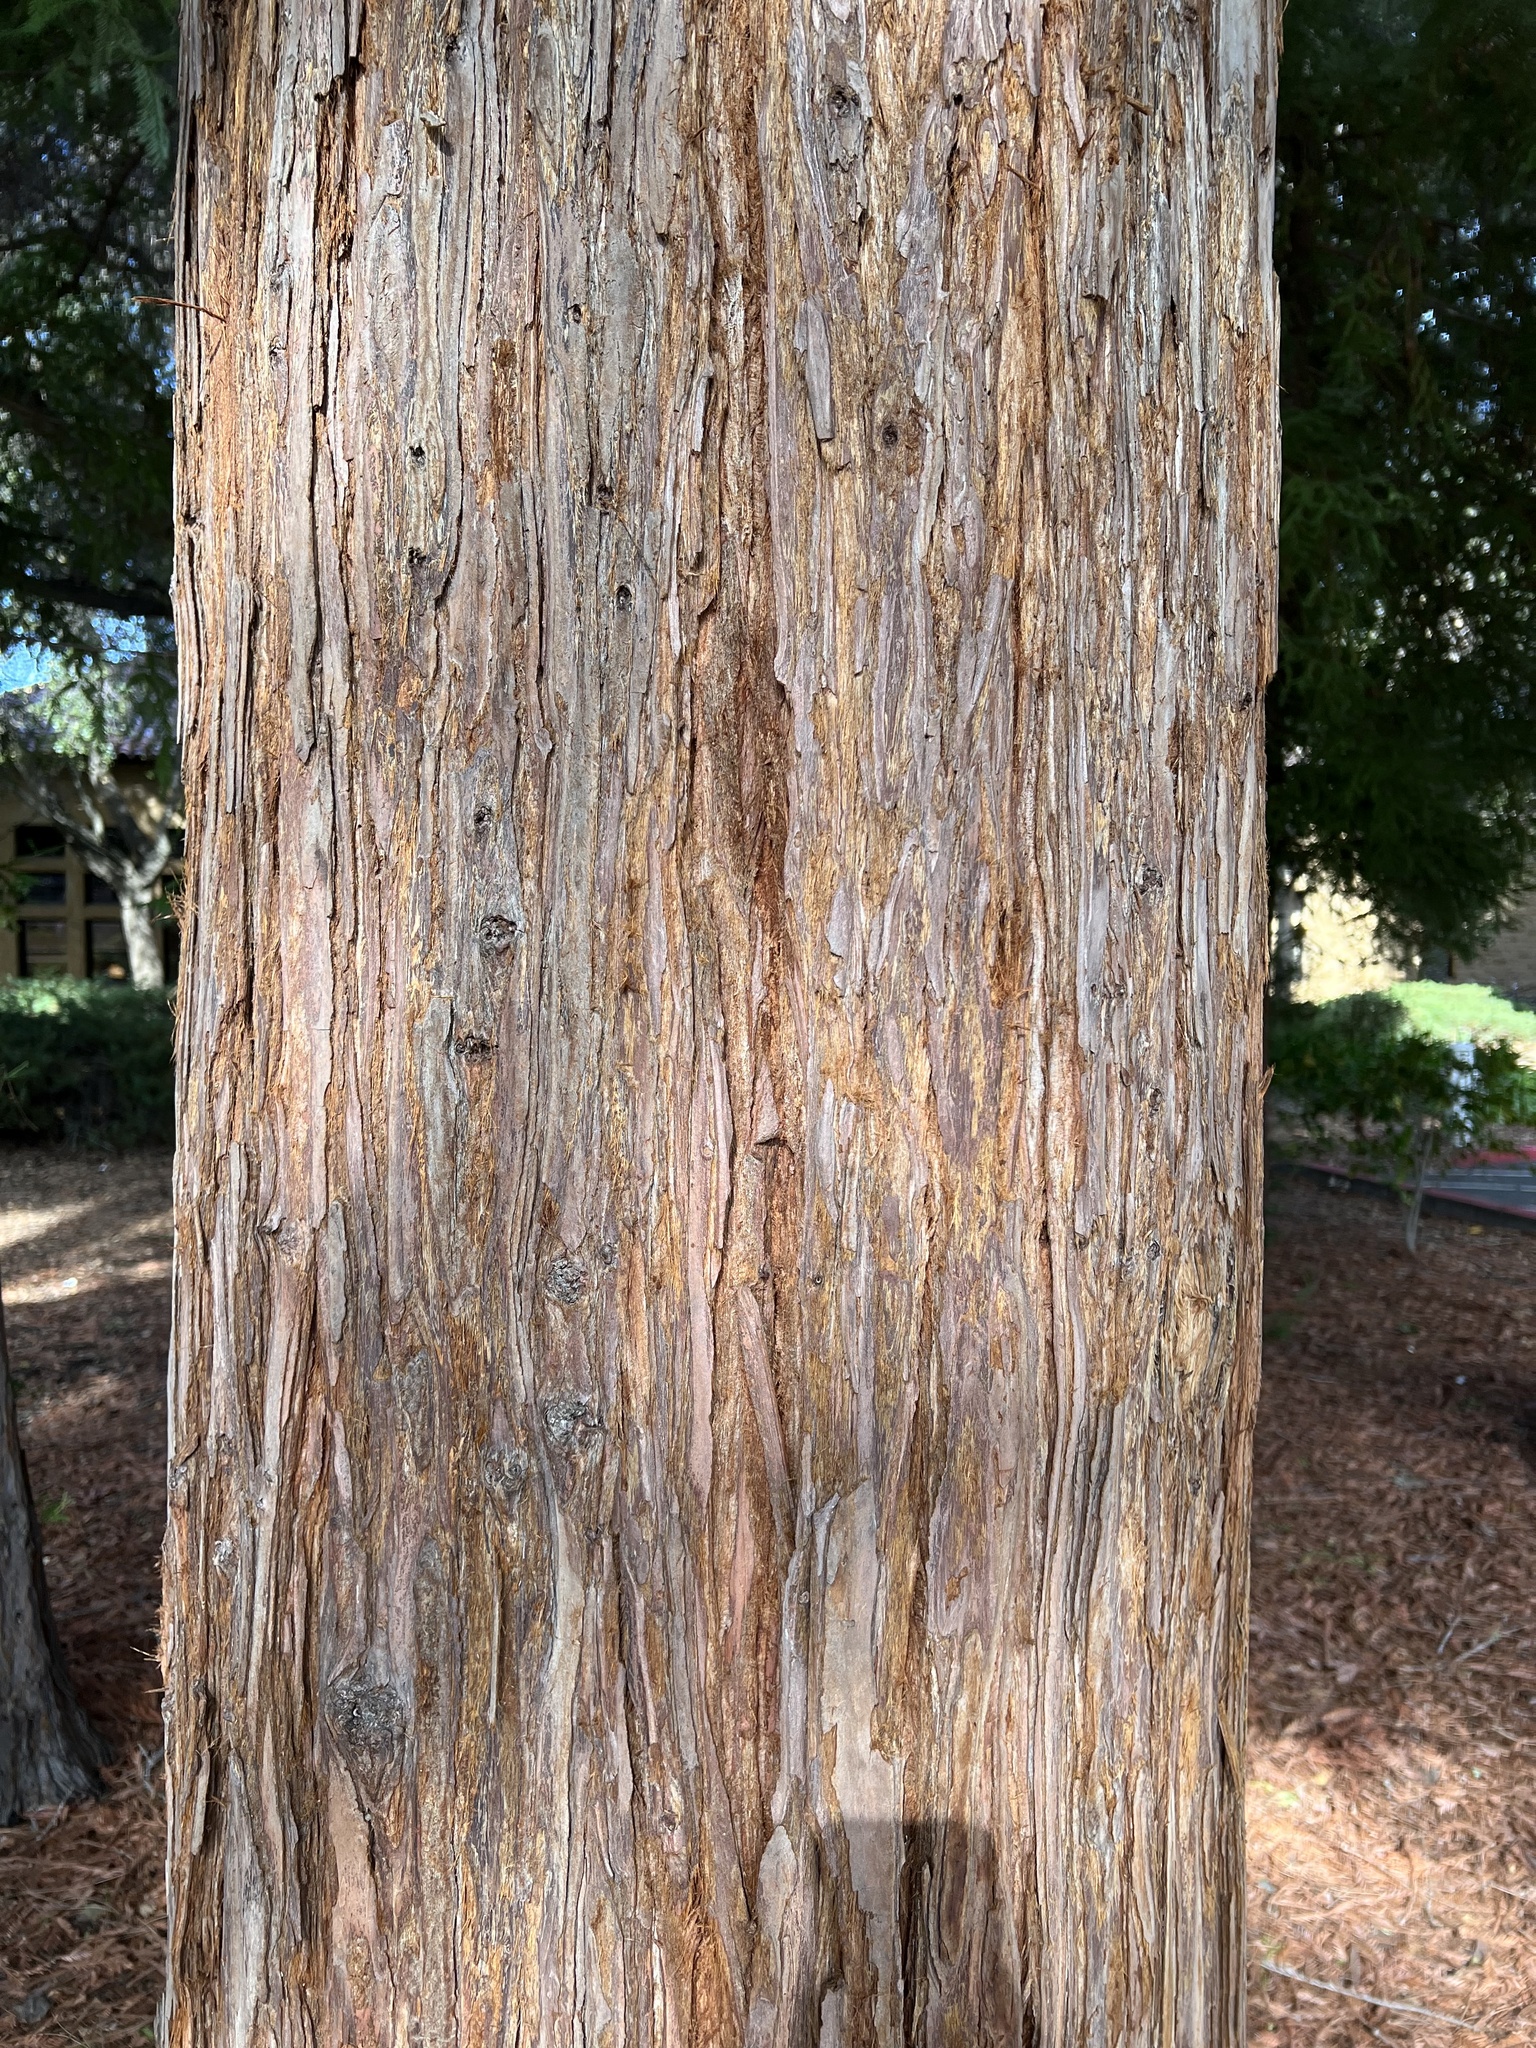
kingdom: Plantae
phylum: Tracheophyta
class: Pinopsida
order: Pinales
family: Cupressaceae
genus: Sequoia
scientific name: Sequoia sempervirens
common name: Coast redwood
